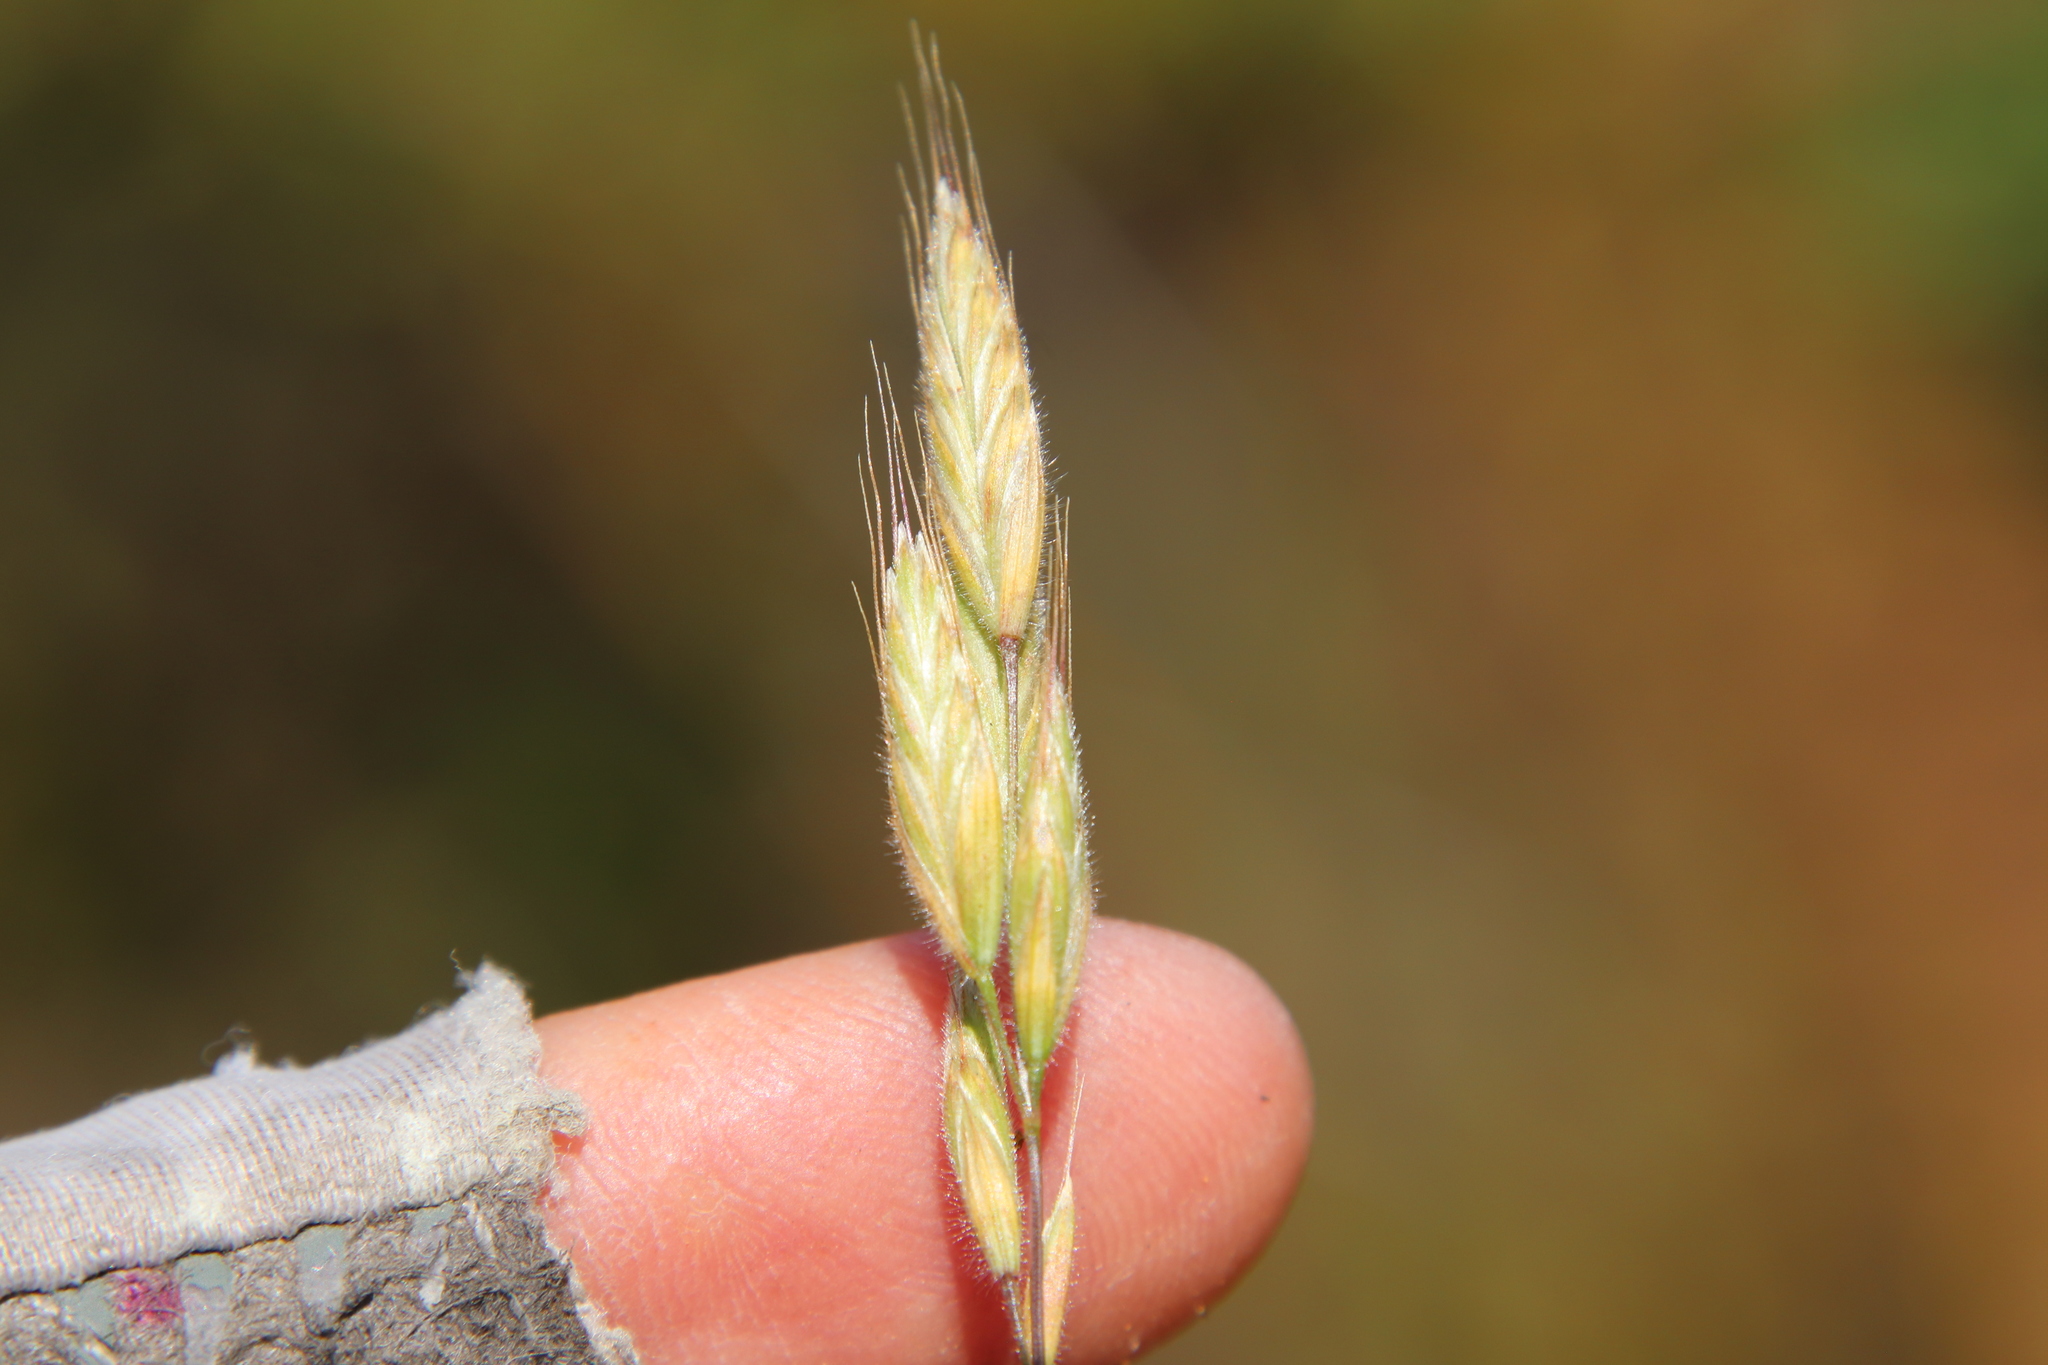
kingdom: Plantae
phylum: Tracheophyta
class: Liliopsida
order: Poales
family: Poaceae
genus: Bromus
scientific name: Bromus hordeaceus
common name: Soft brome
